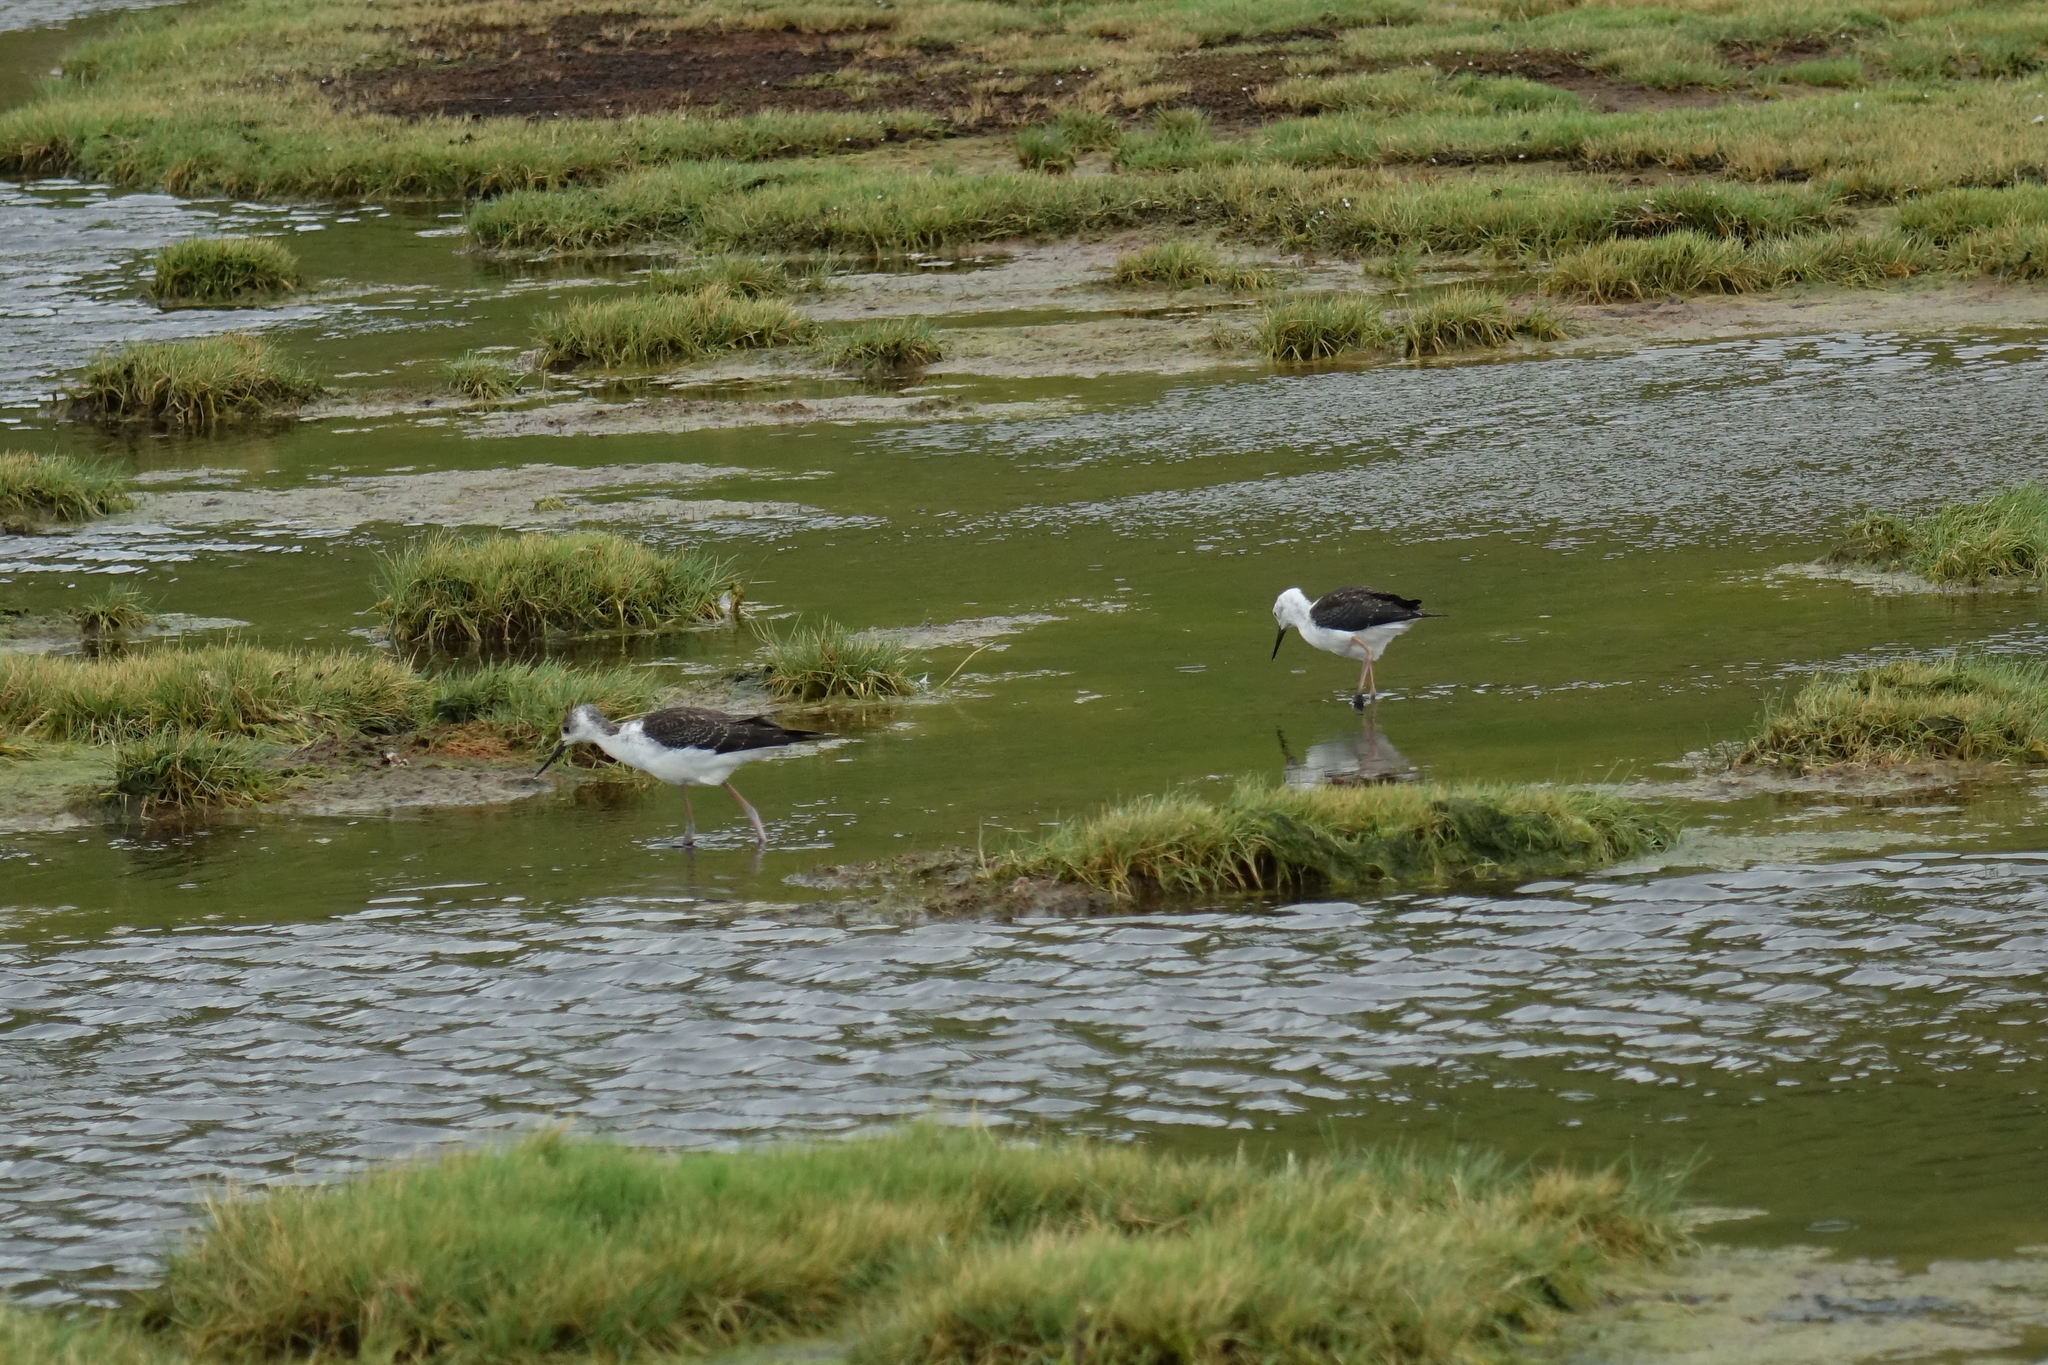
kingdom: Animalia
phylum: Chordata
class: Aves
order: Charadriiformes
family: Recurvirostridae
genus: Himantopus
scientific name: Himantopus leucocephalus
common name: White-headed stilt
